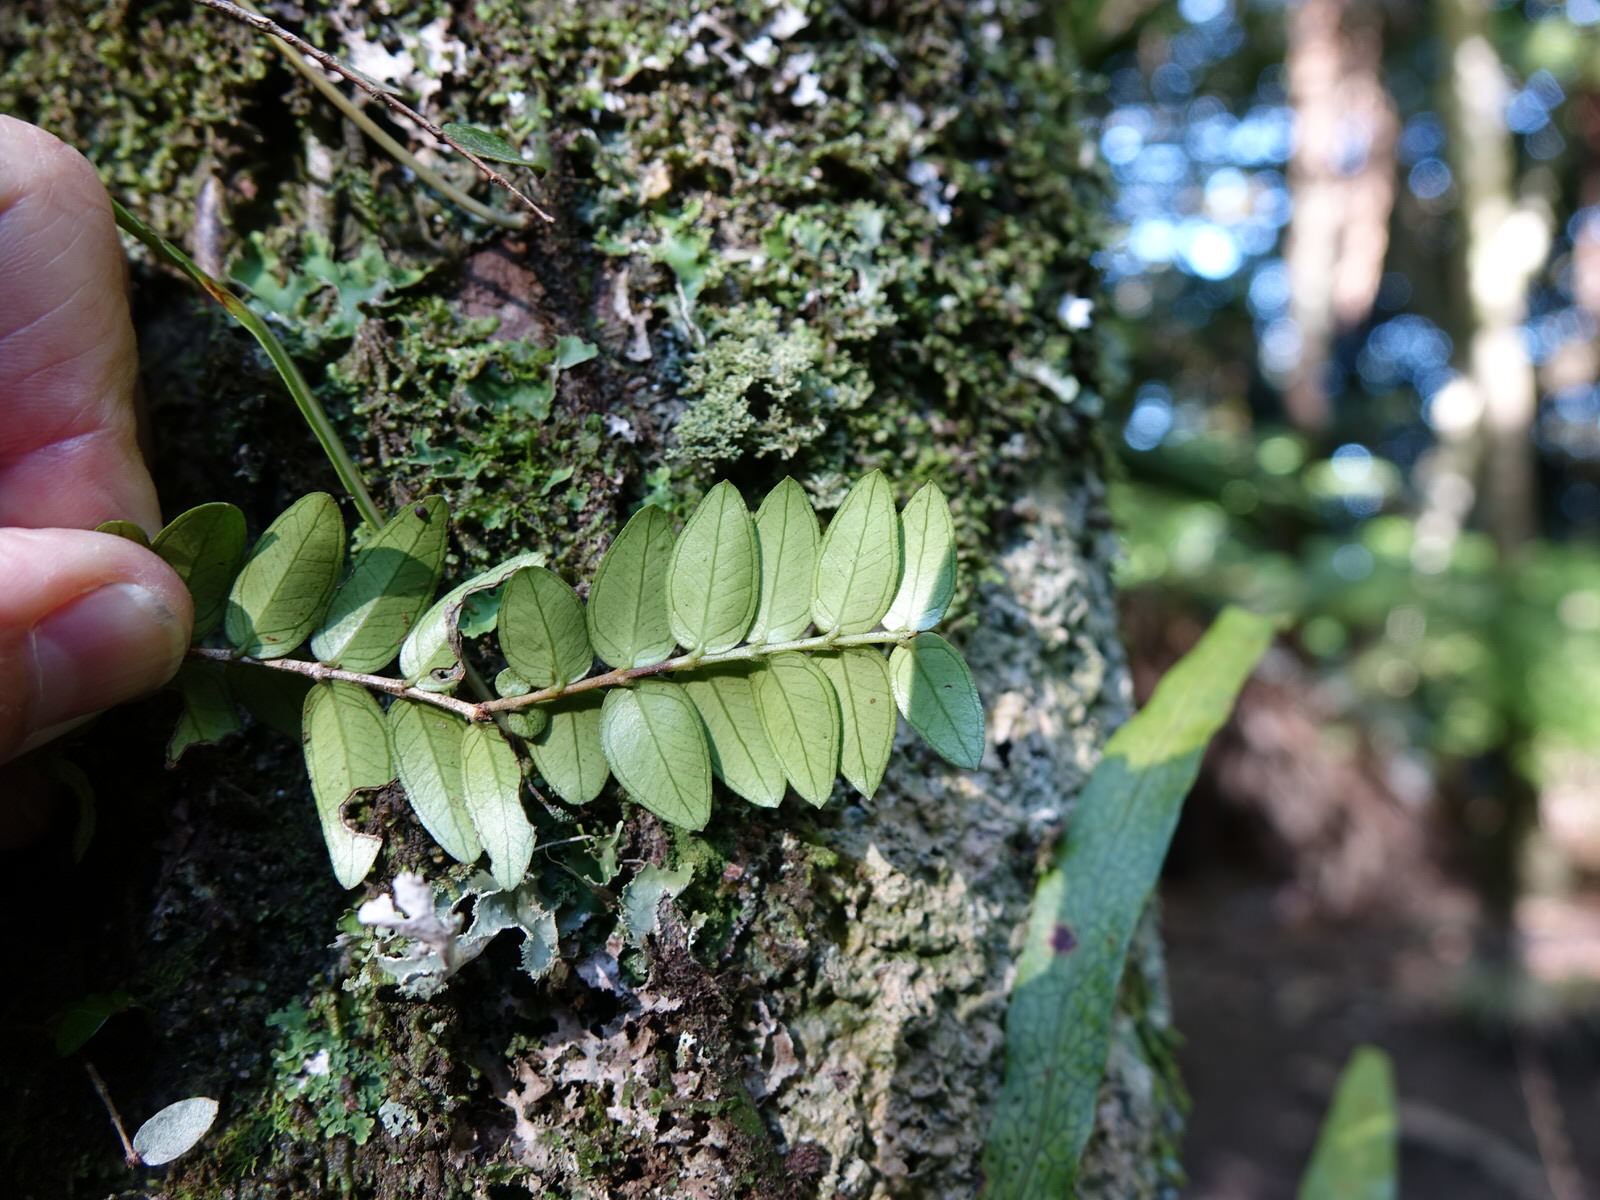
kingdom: Plantae
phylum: Tracheophyta
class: Magnoliopsida
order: Myrtales
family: Myrtaceae
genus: Metrosideros
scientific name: Metrosideros diffusa
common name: Small ratavine
